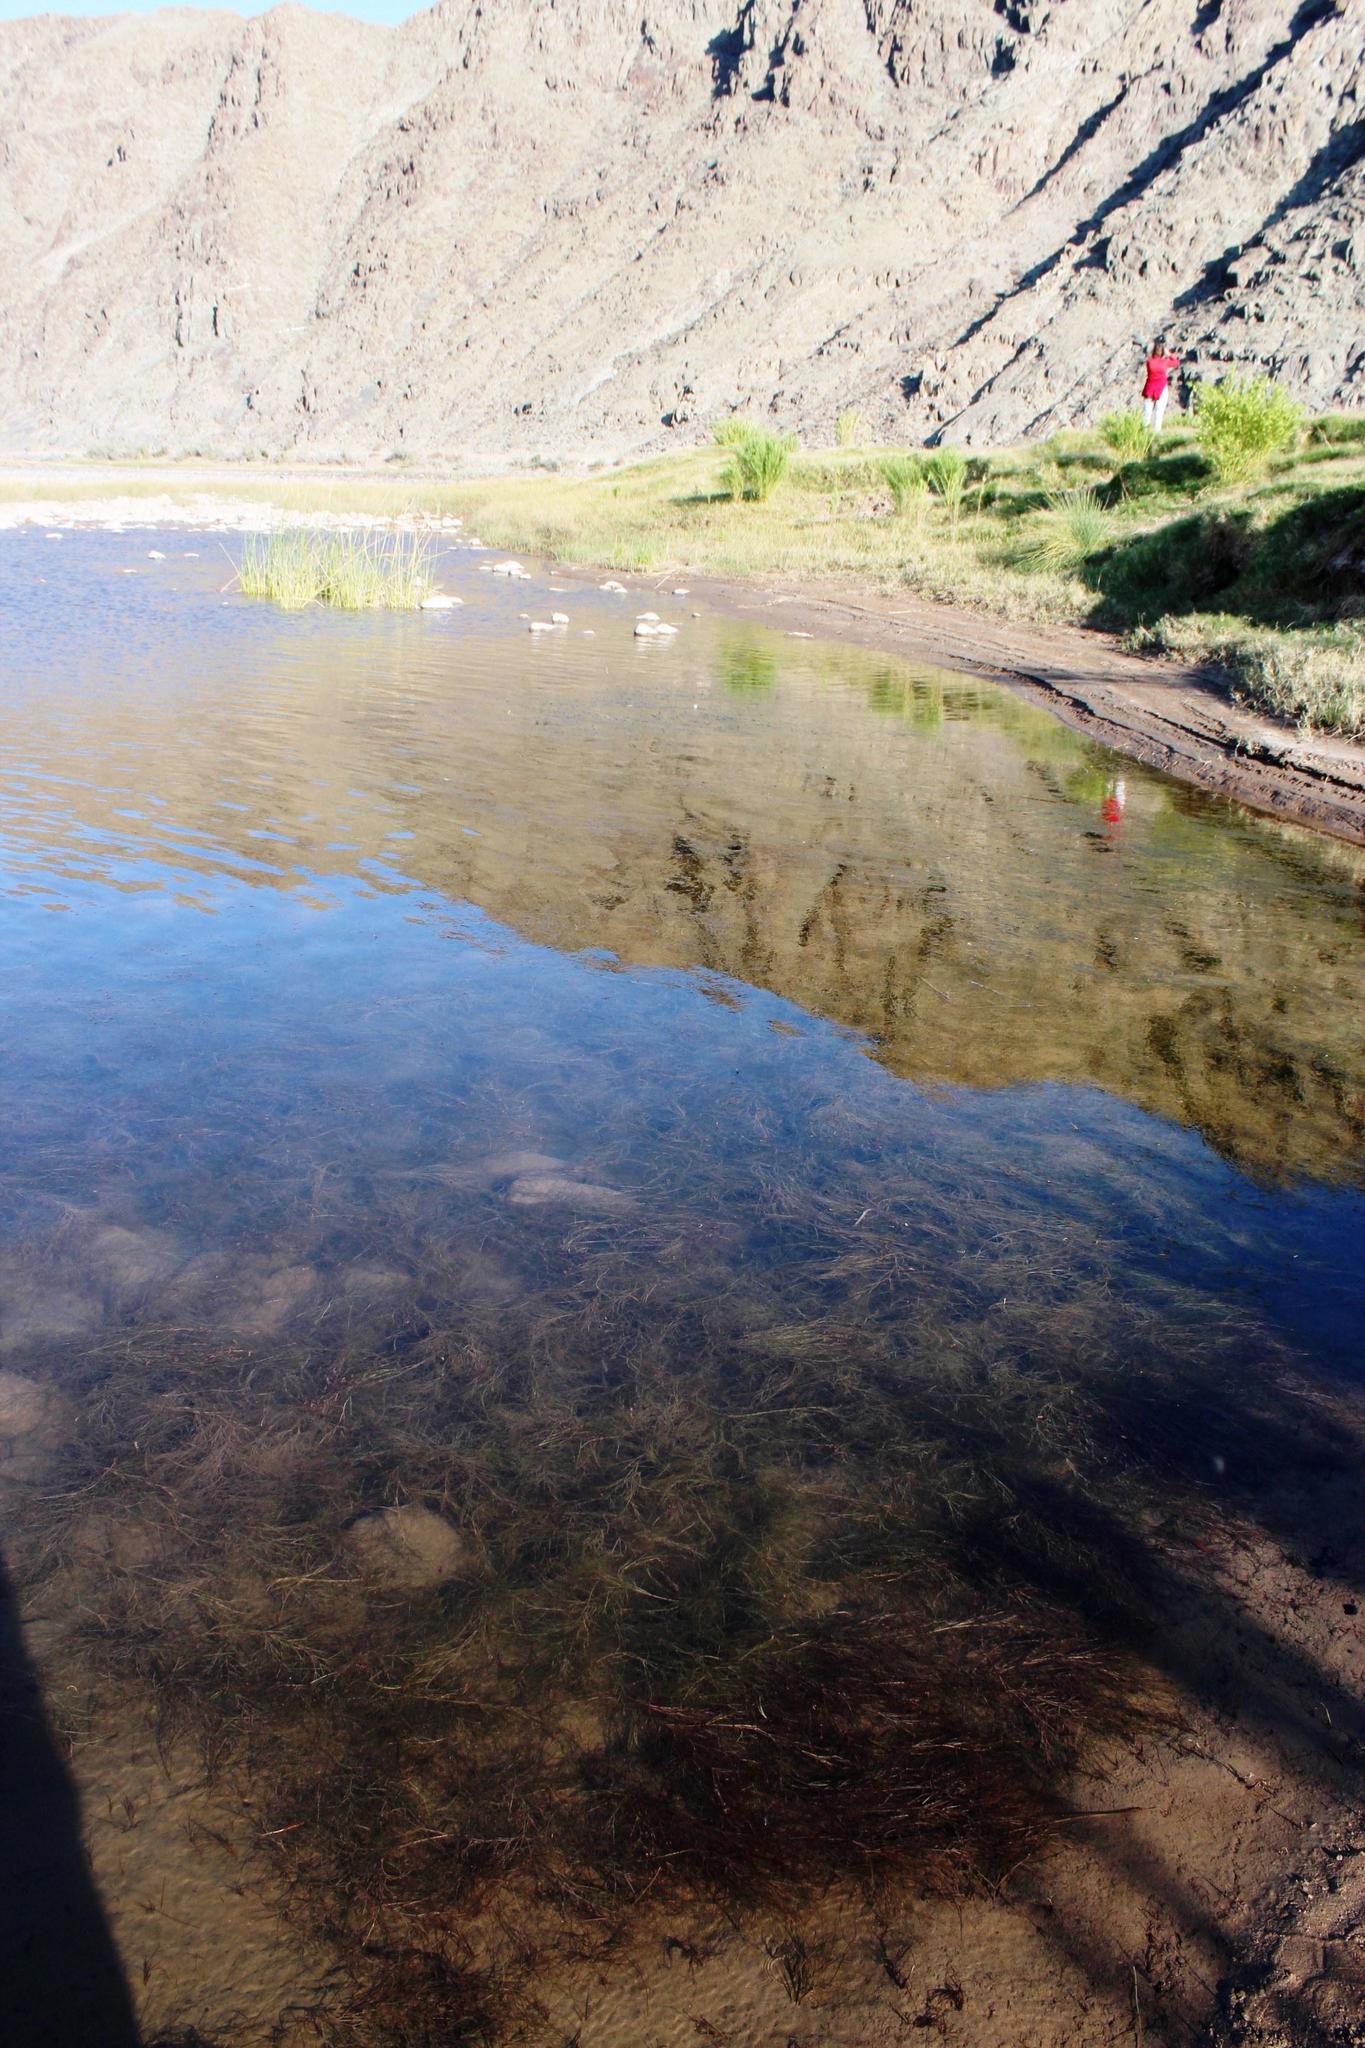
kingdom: Plantae
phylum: Tracheophyta
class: Liliopsida
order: Alismatales
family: Potamogetonaceae
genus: Stuckenia
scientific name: Stuckenia pectinata
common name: Sago pondweed
